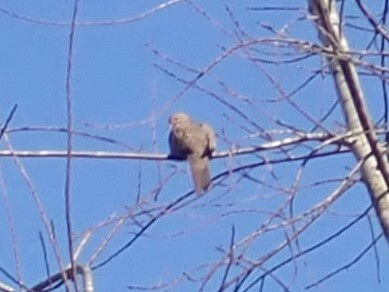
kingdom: Animalia
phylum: Chordata
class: Aves
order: Columbiformes
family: Columbidae
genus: Zenaida
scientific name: Zenaida macroura
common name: Mourning dove
